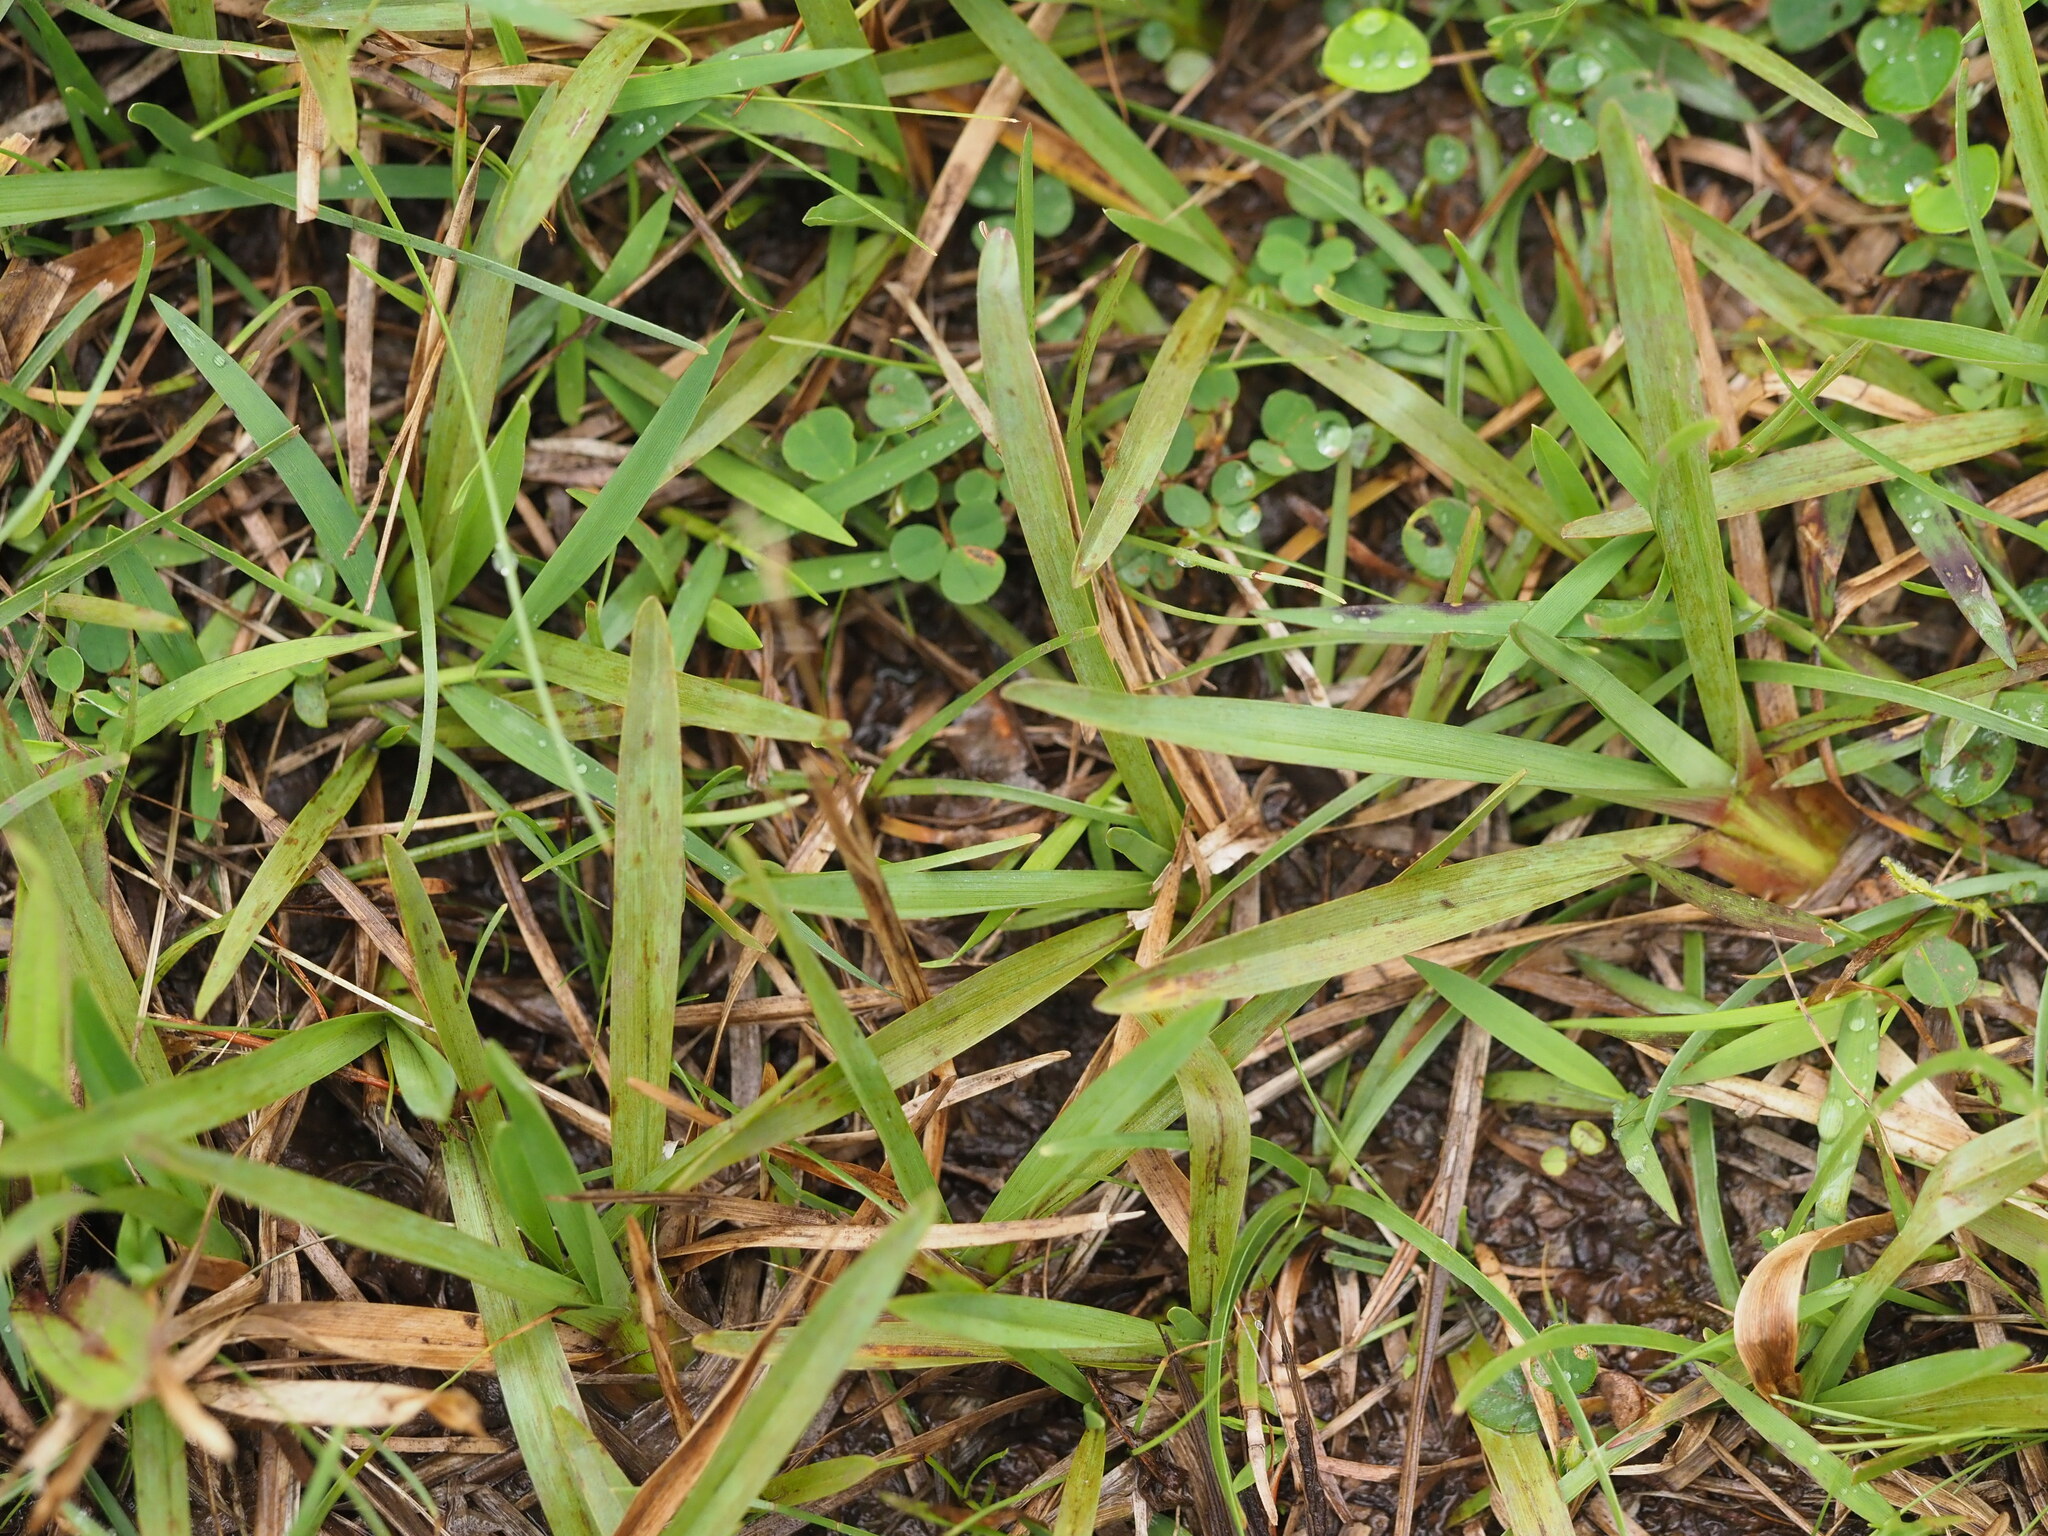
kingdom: Plantae
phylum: Tracheophyta
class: Liliopsida
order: Poales
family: Poaceae
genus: Axonopus
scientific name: Axonopus fissifolius
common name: Common carpetgrass
